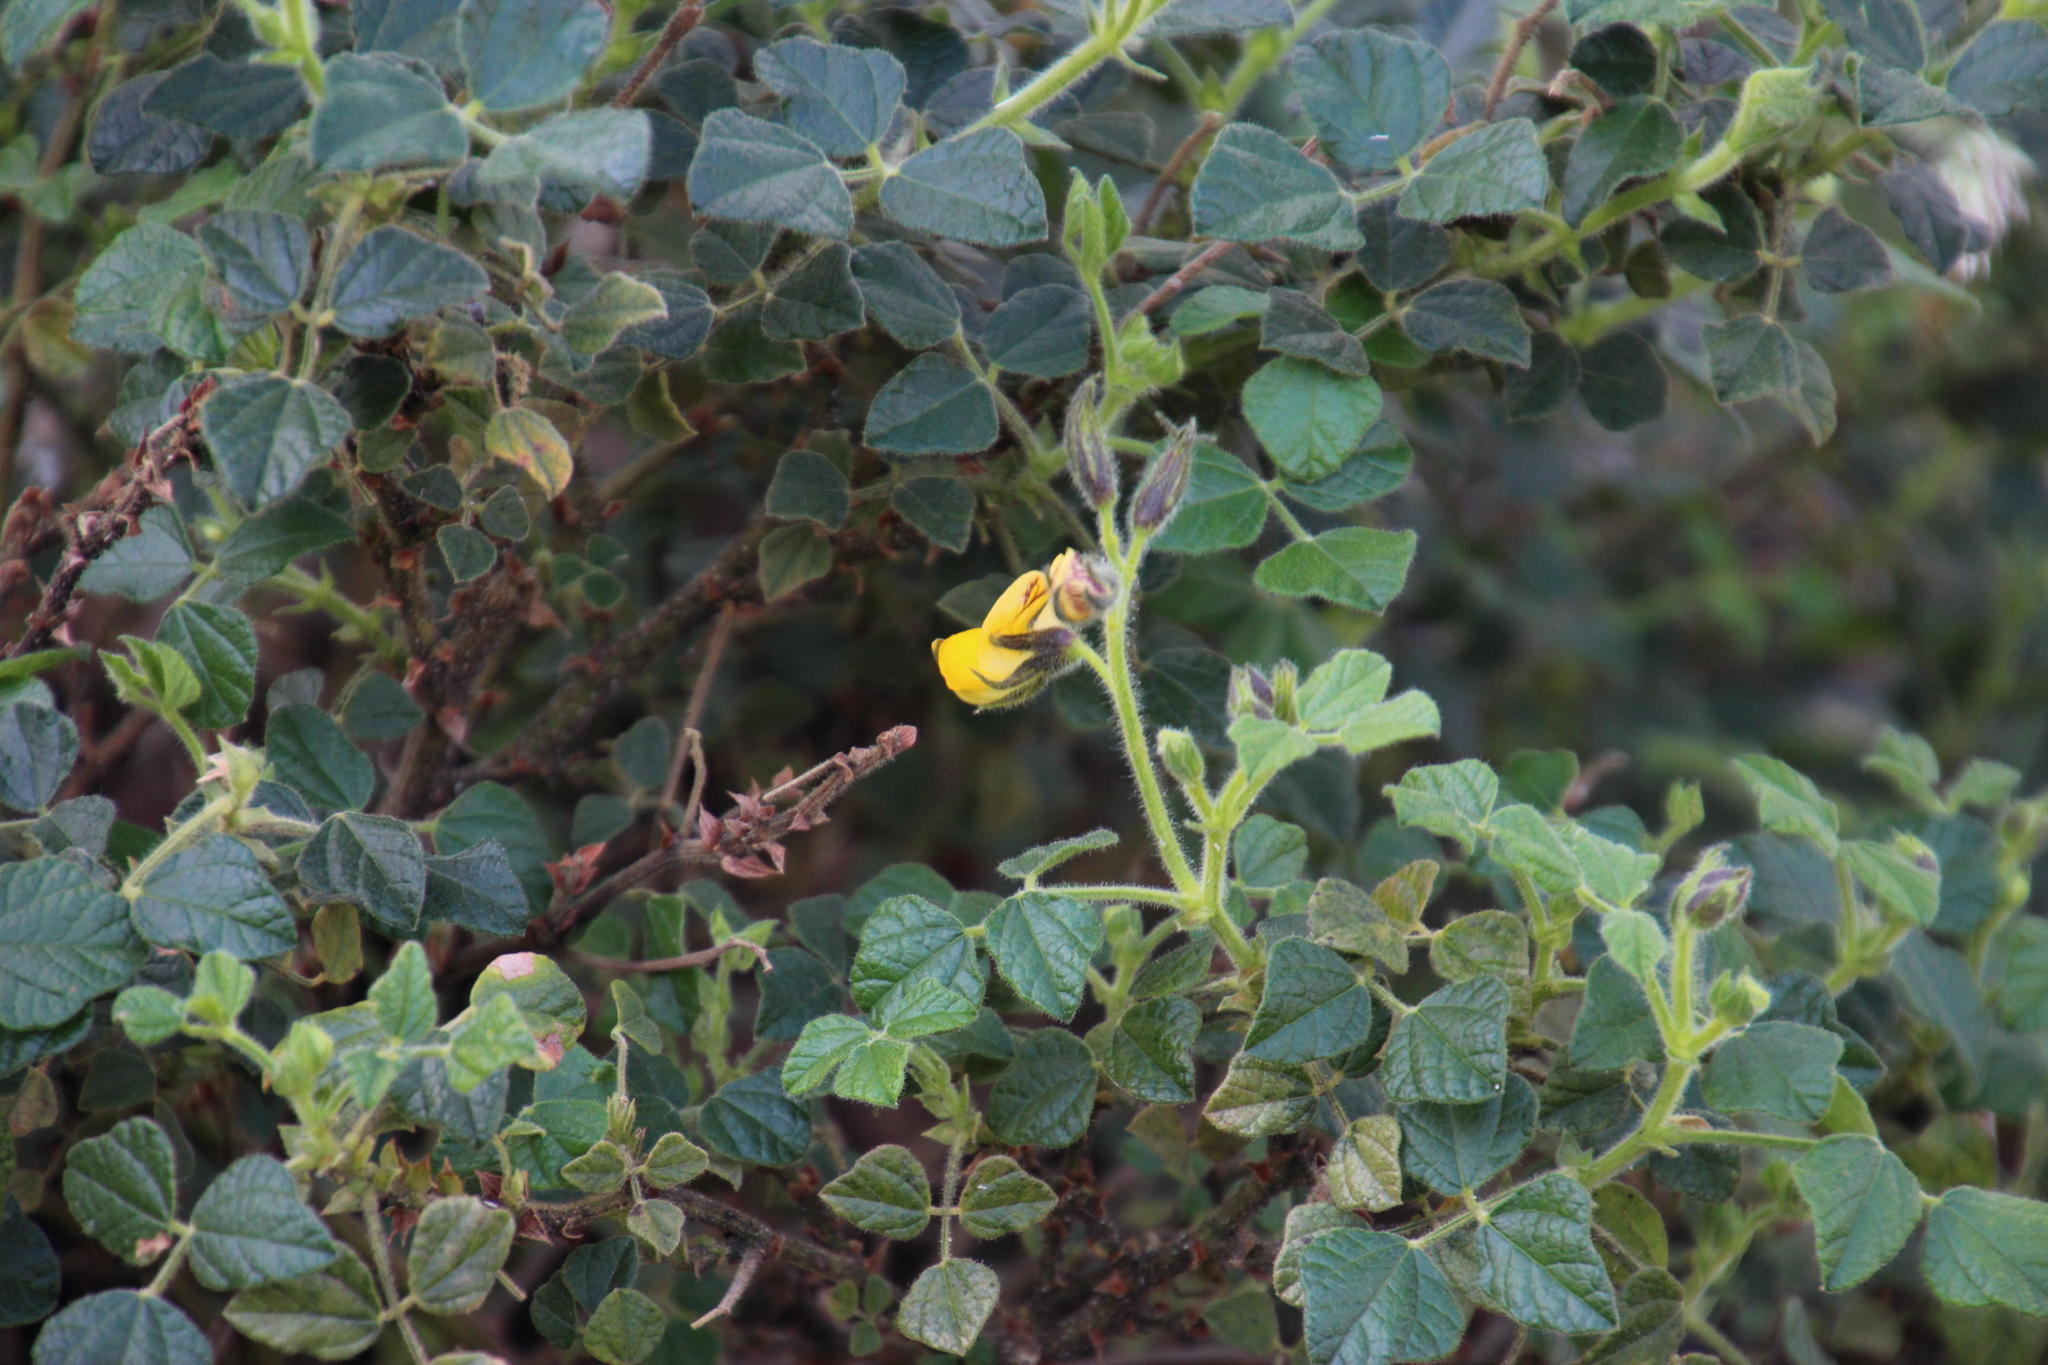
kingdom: Plantae
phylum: Tracheophyta
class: Magnoliopsida
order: Fabales
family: Fabaceae
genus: Bolusafra
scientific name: Bolusafra bituminosa
